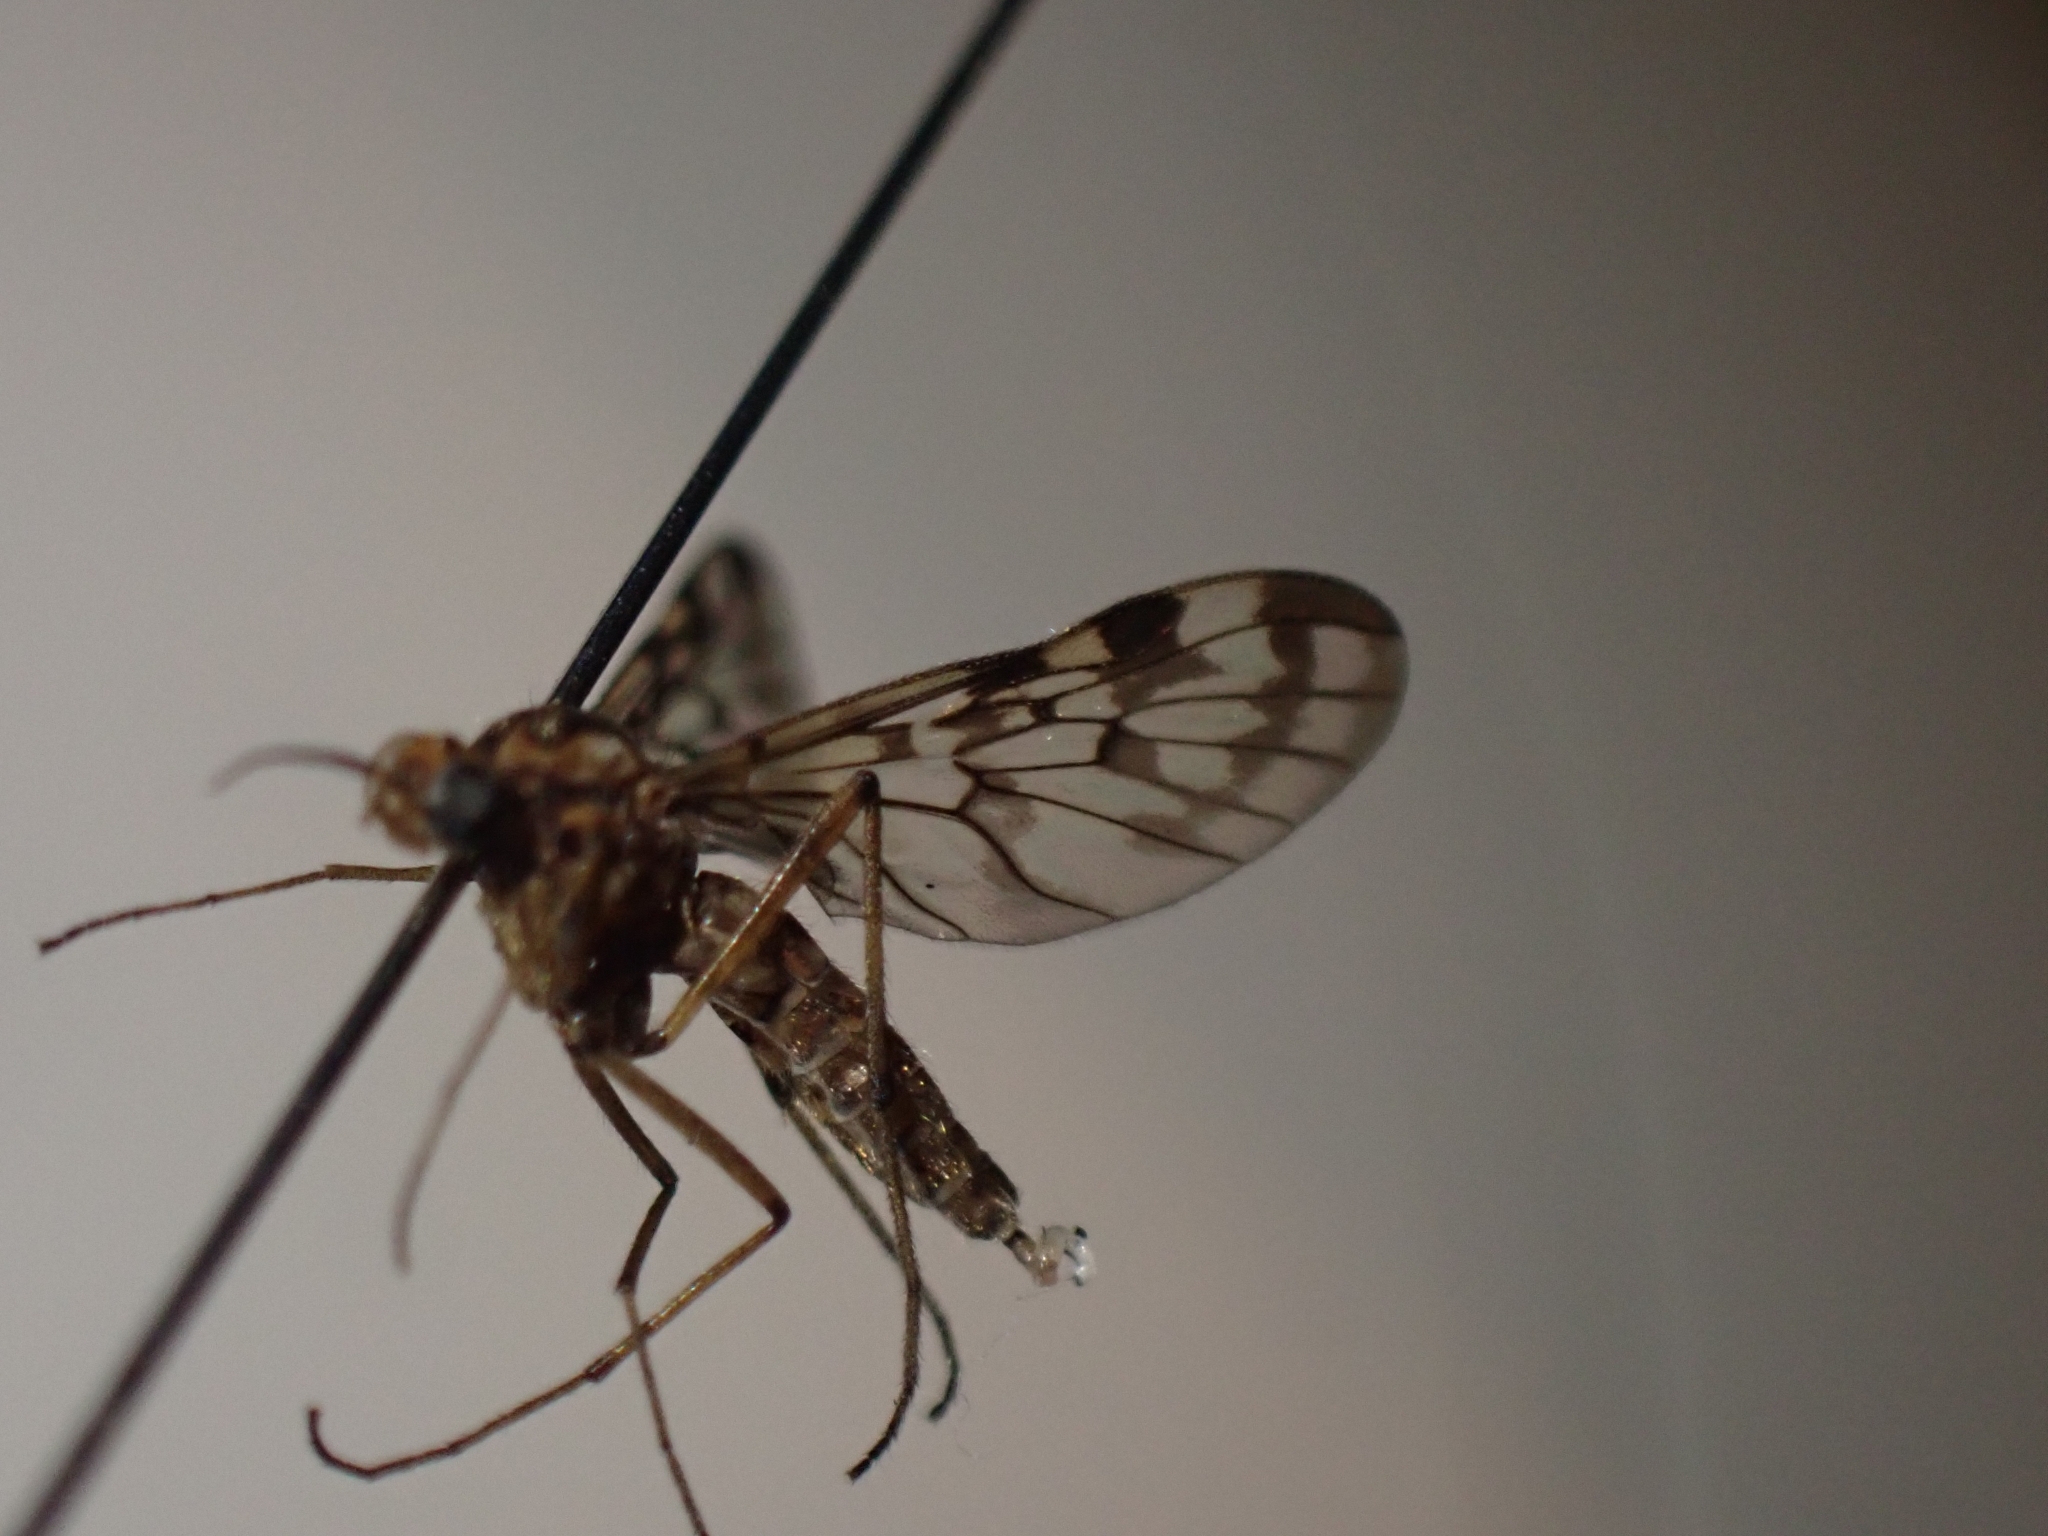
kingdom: Animalia
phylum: Arthropoda
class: Insecta
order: Diptera
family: Anisopodidae
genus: Sylvicola
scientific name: Sylvicola dubius
